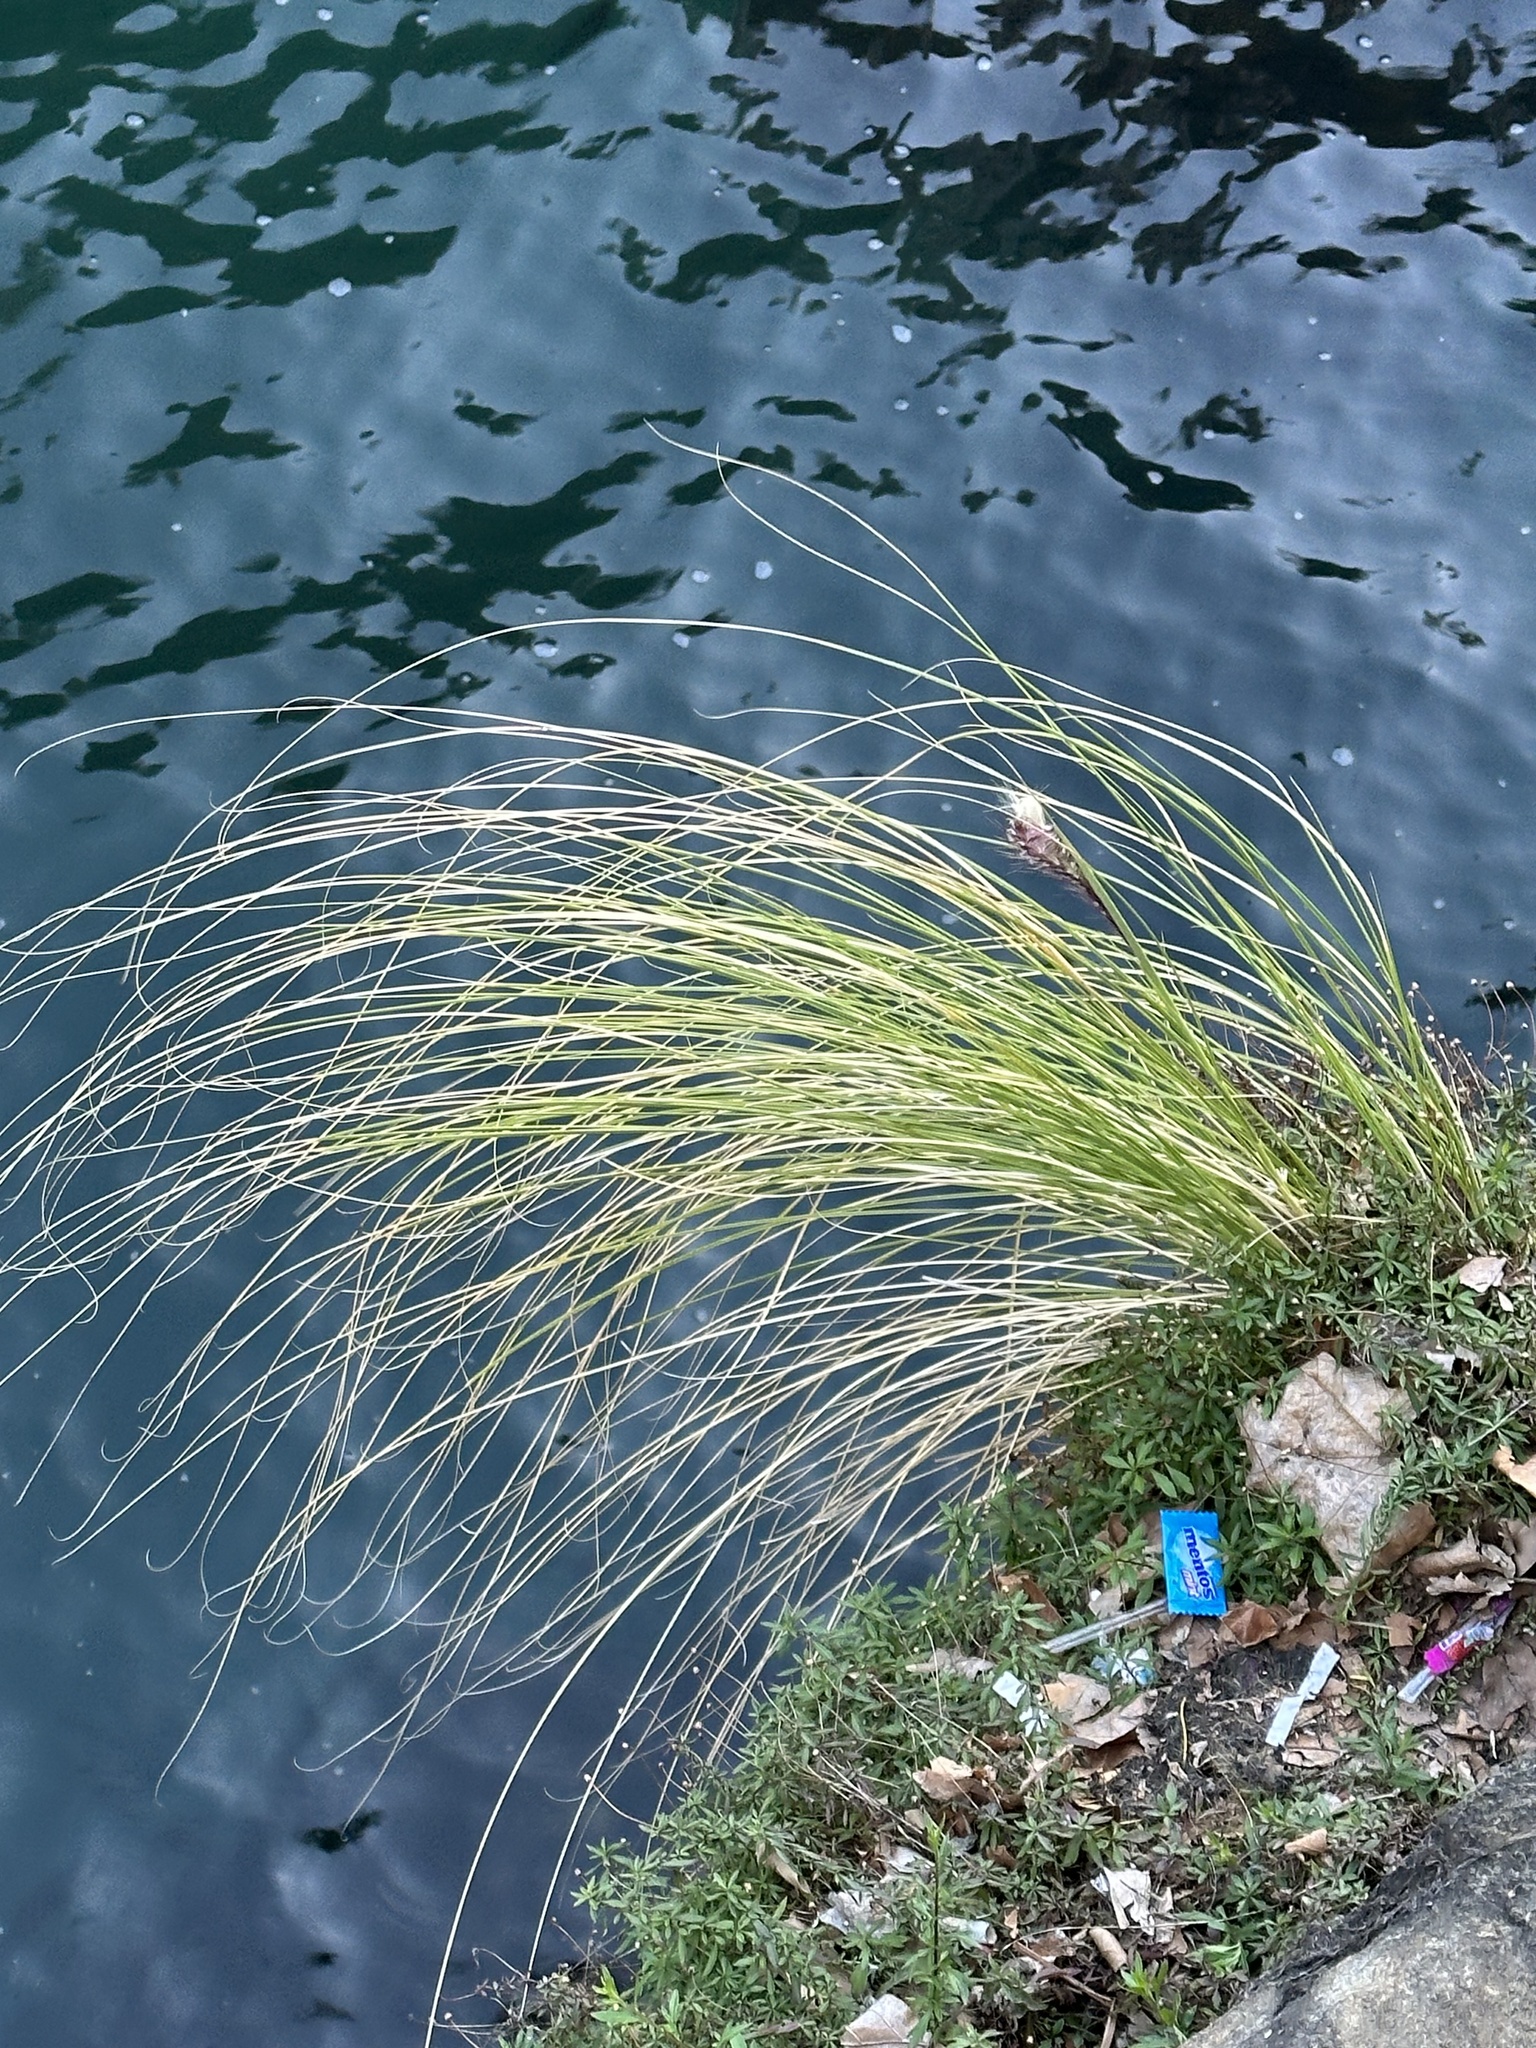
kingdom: Plantae
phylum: Tracheophyta
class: Liliopsida
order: Poales
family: Poaceae
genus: Cenchrus
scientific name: Cenchrus setaceus
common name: Crimson fountaingrass
